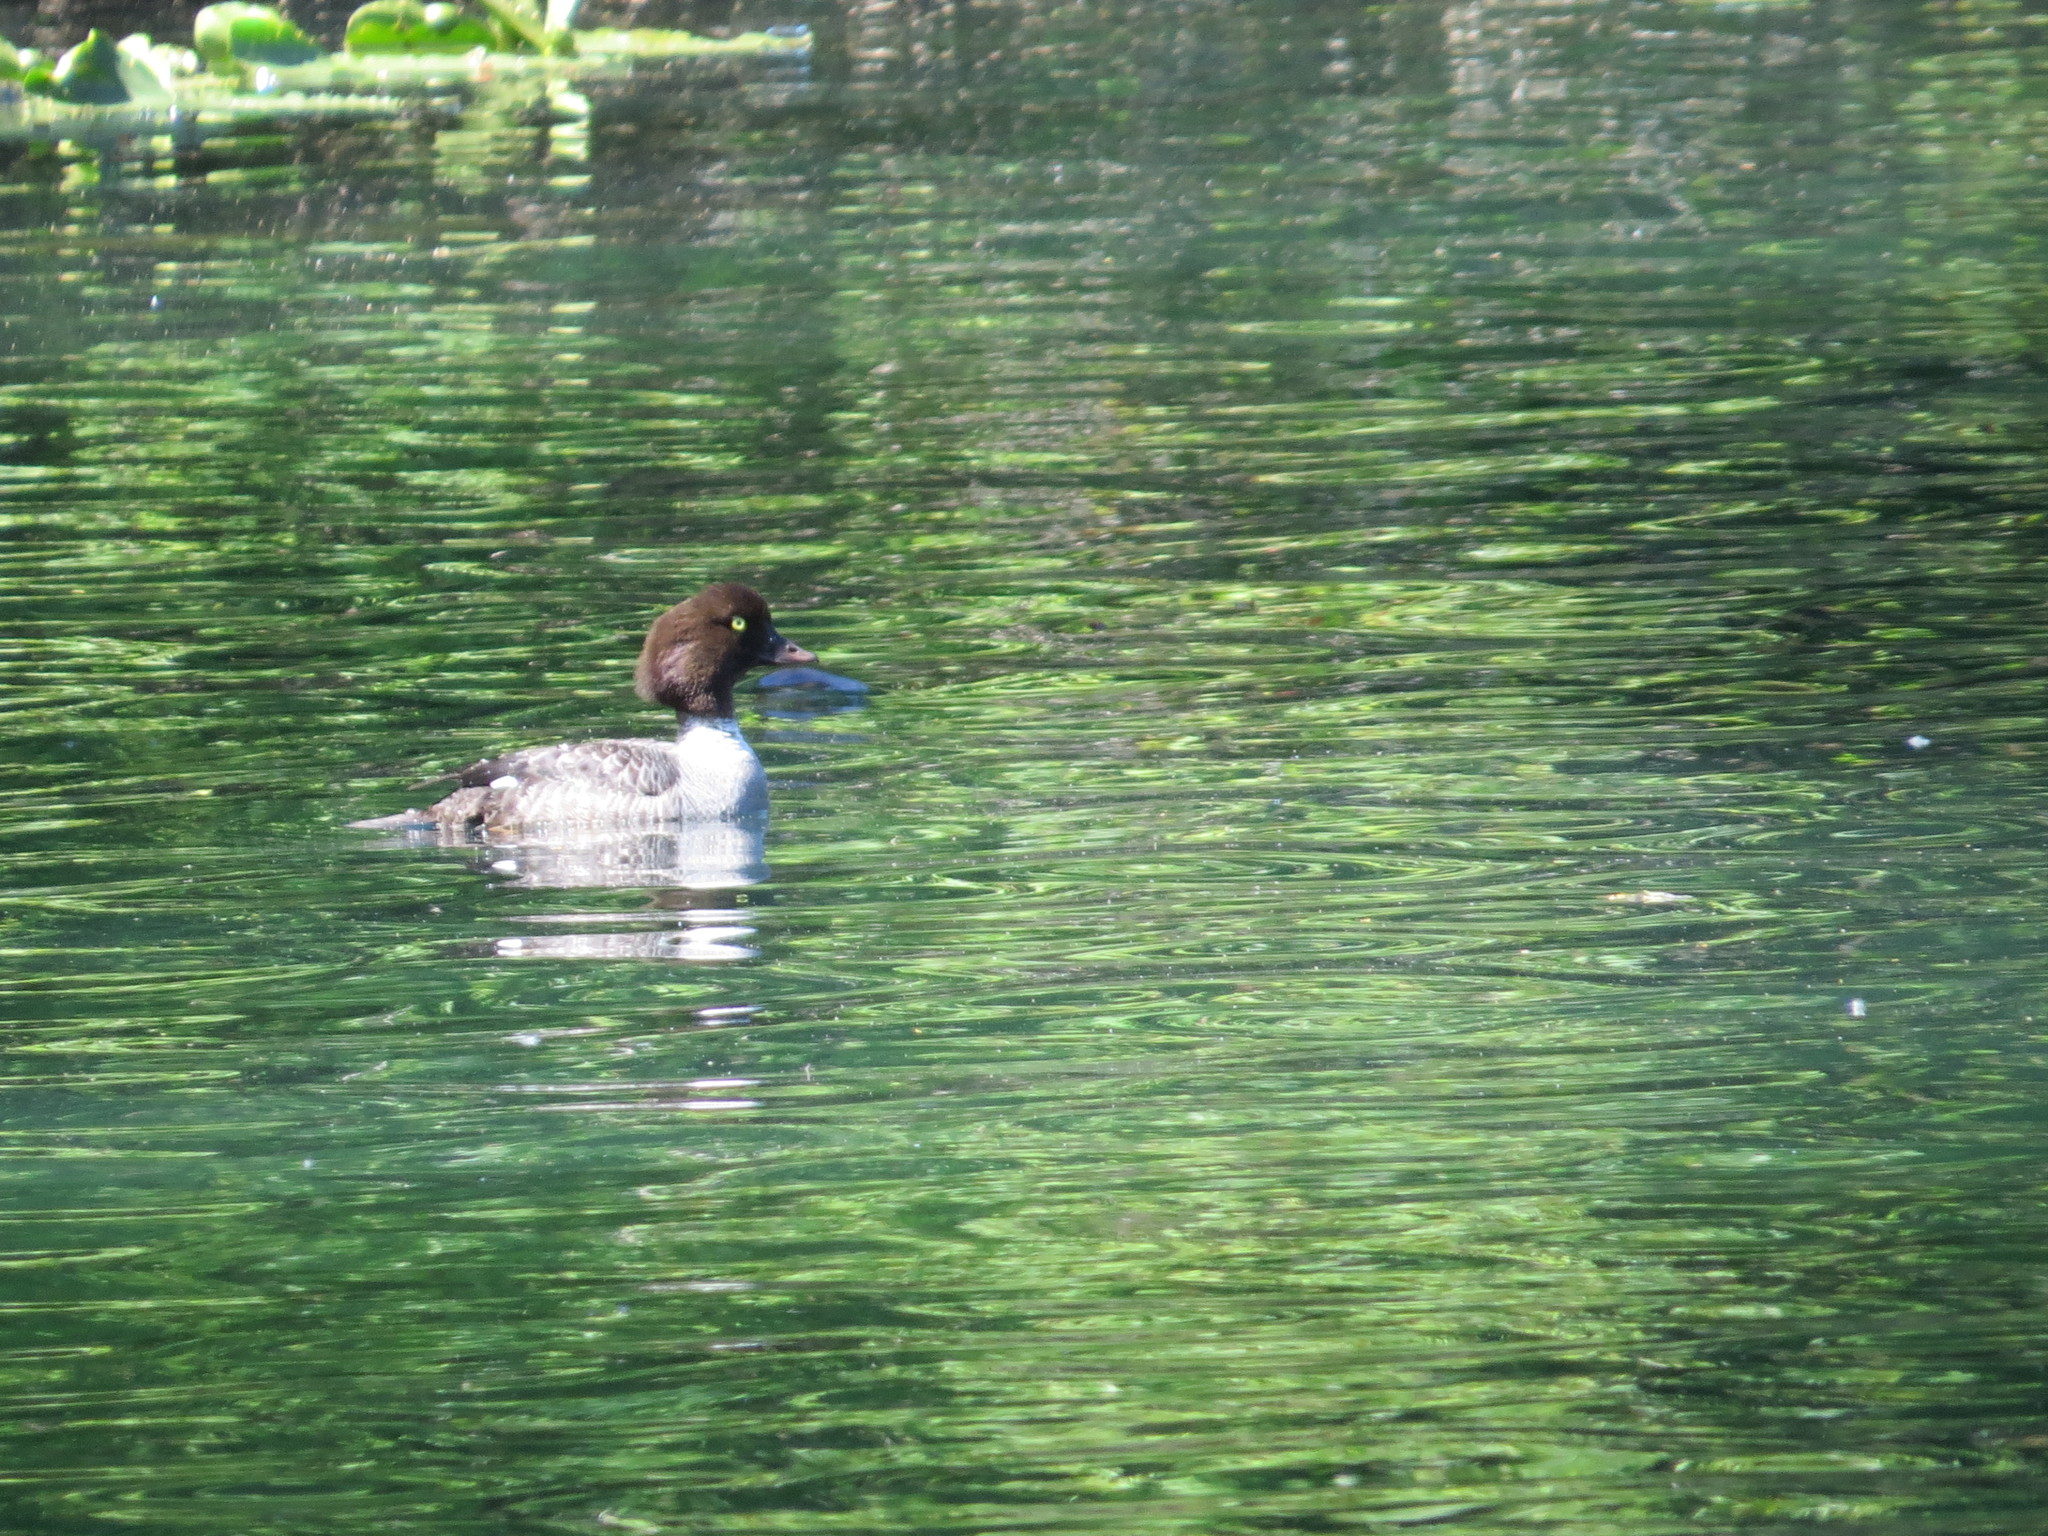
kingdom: Animalia
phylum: Chordata
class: Aves
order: Anseriformes
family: Anatidae
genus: Bucephala
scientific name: Bucephala islandica
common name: Barrow's goldeneye
